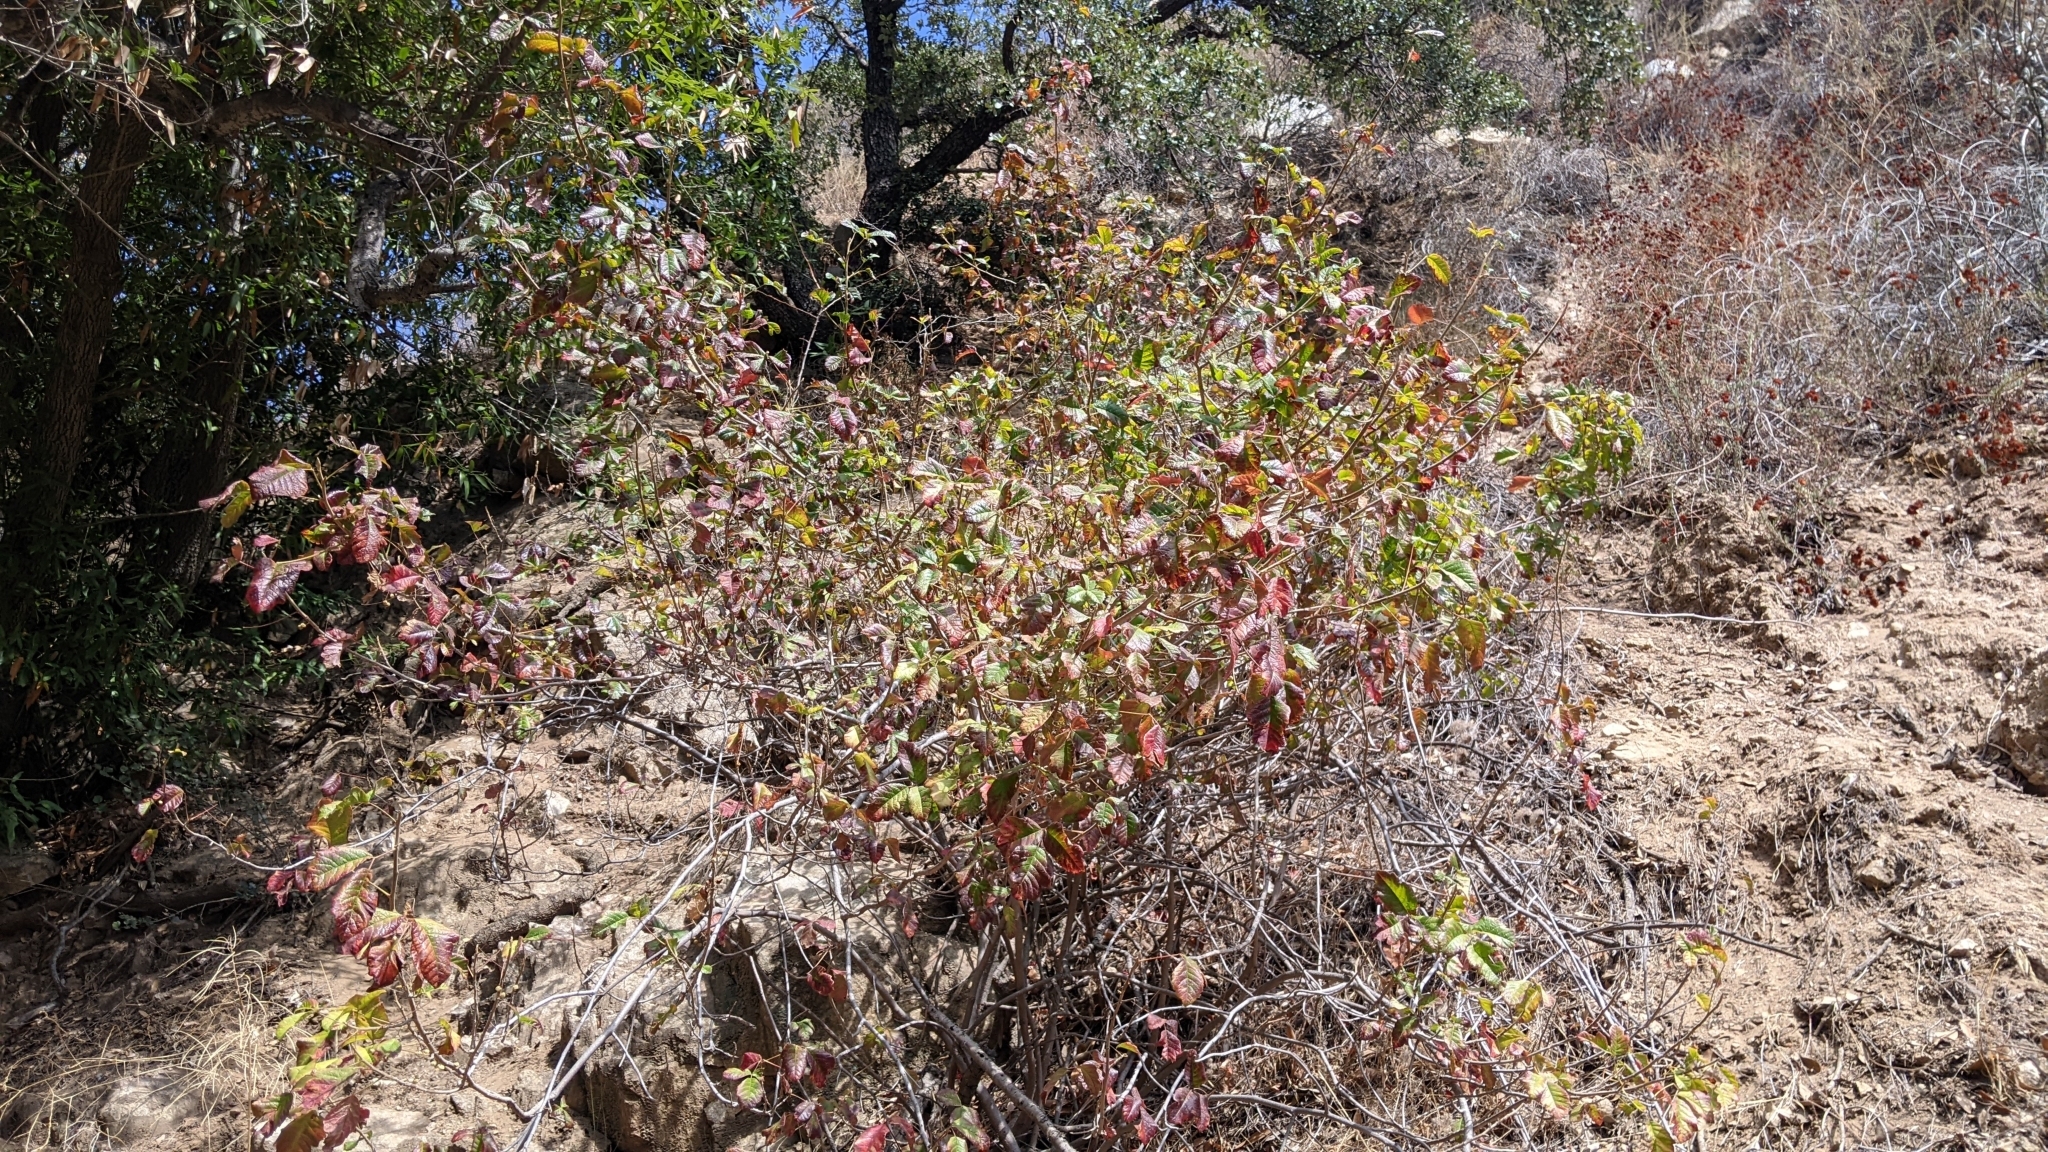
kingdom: Plantae
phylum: Tracheophyta
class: Magnoliopsida
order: Sapindales
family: Anacardiaceae
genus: Toxicodendron
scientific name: Toxicodendron diversilobum
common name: Pacific poison-oak
